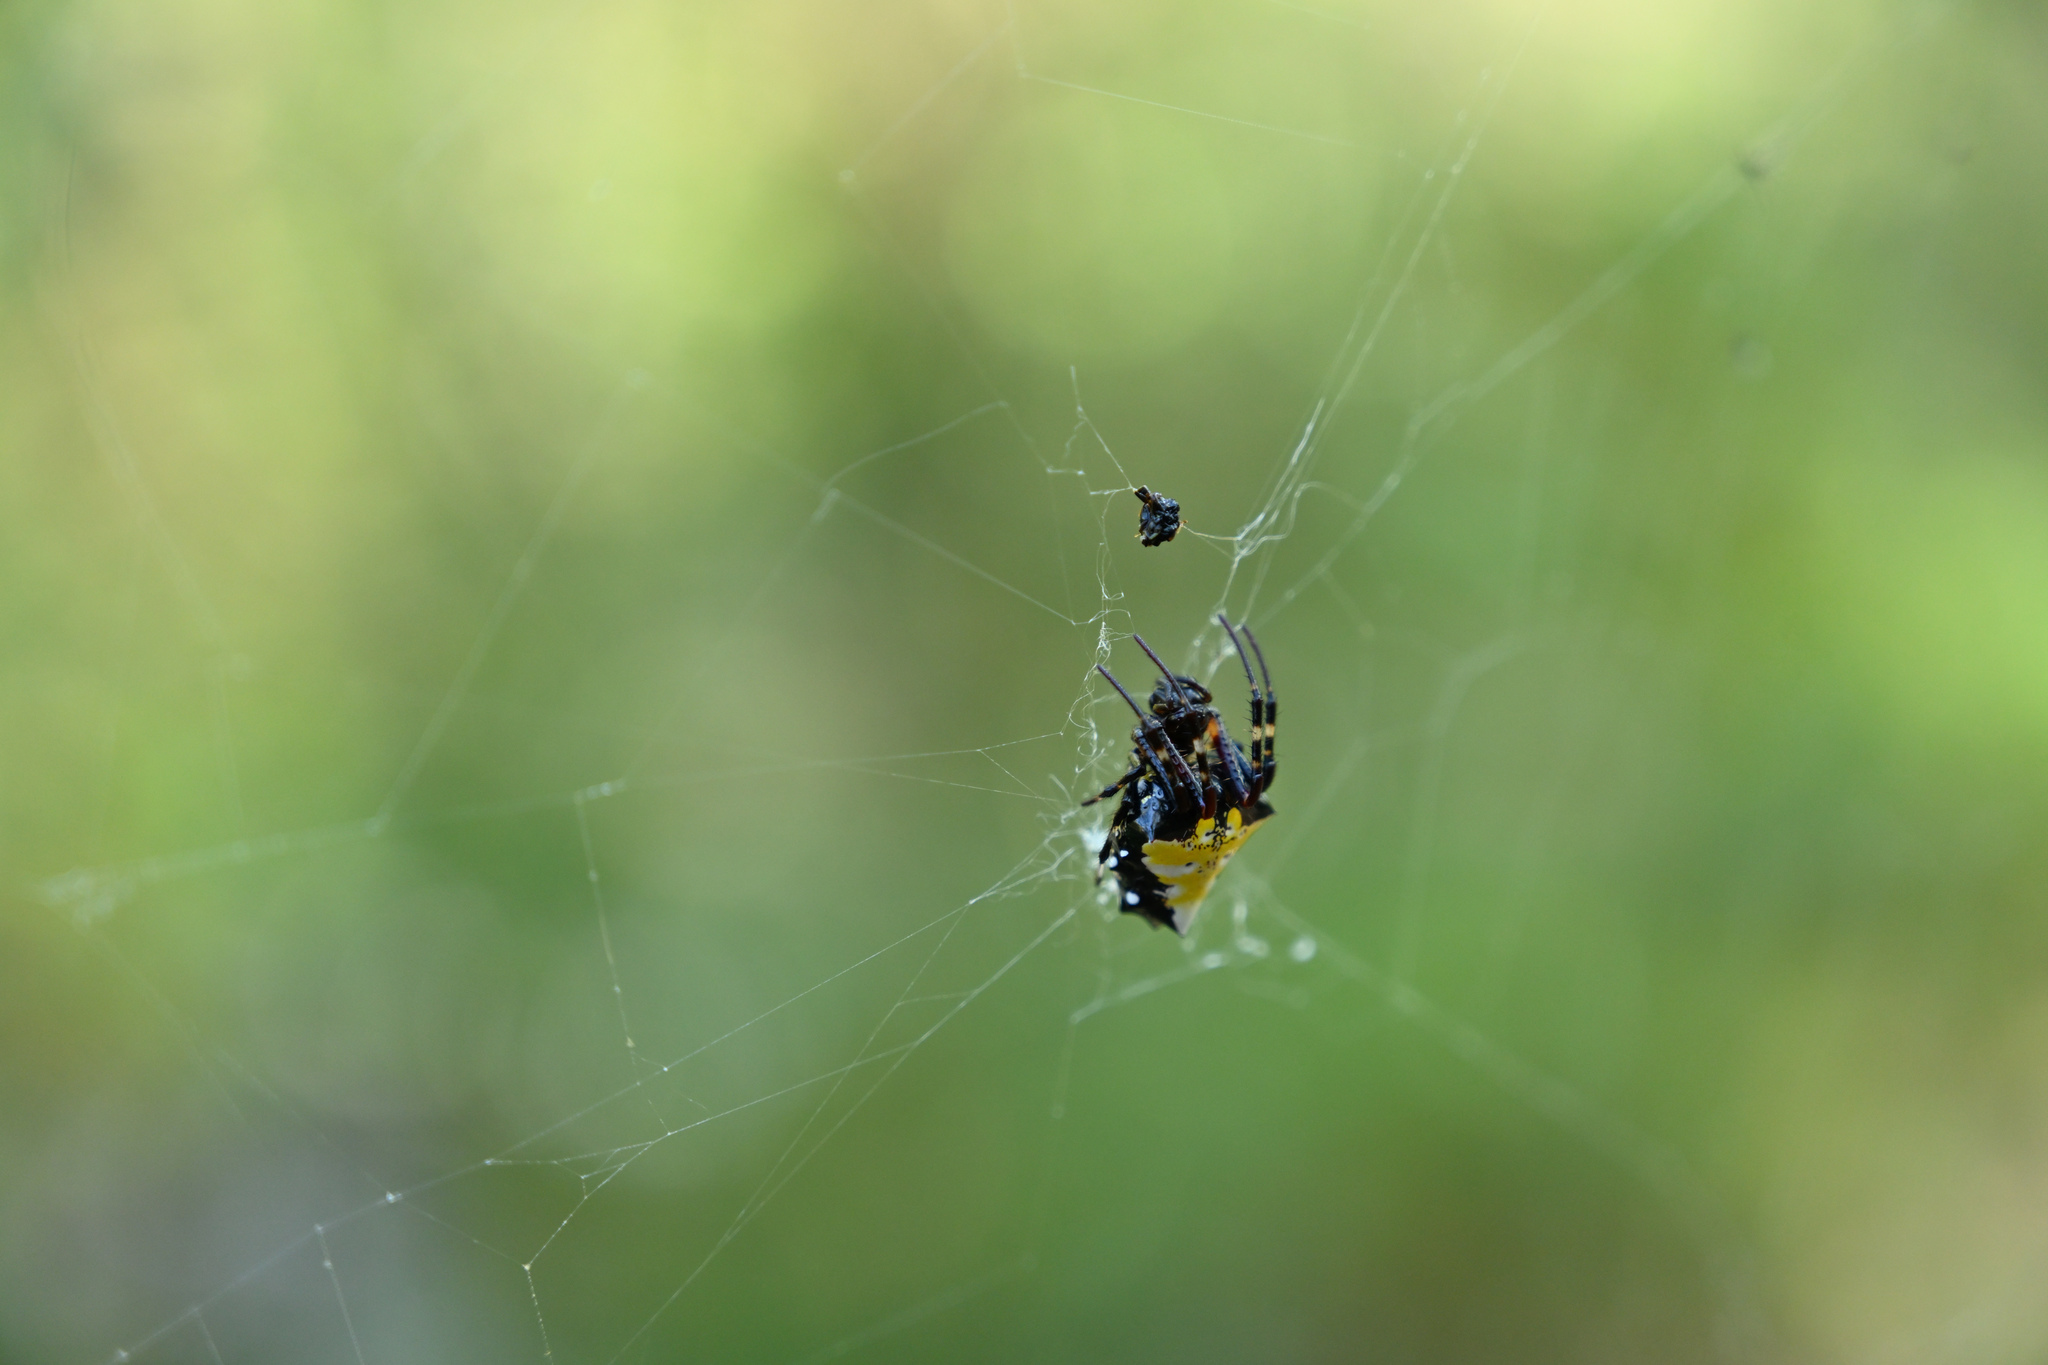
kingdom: Animalia
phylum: Arthropoda
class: Arachnida
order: Araneae
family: Araneidae
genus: Verrucosa
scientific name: Verrucosa arenata
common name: Orb weavers
